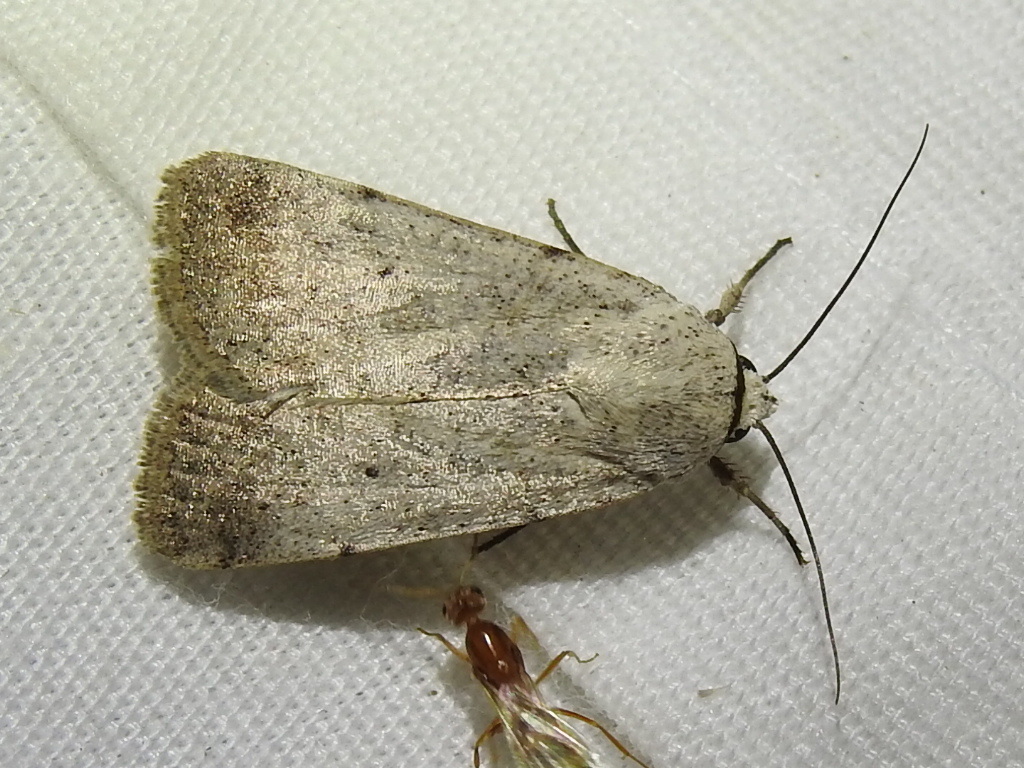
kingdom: Animalia
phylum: Arthropoda
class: Insecta
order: Lepidoptera
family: Noctuidae
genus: Anicla
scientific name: Anicla digna
